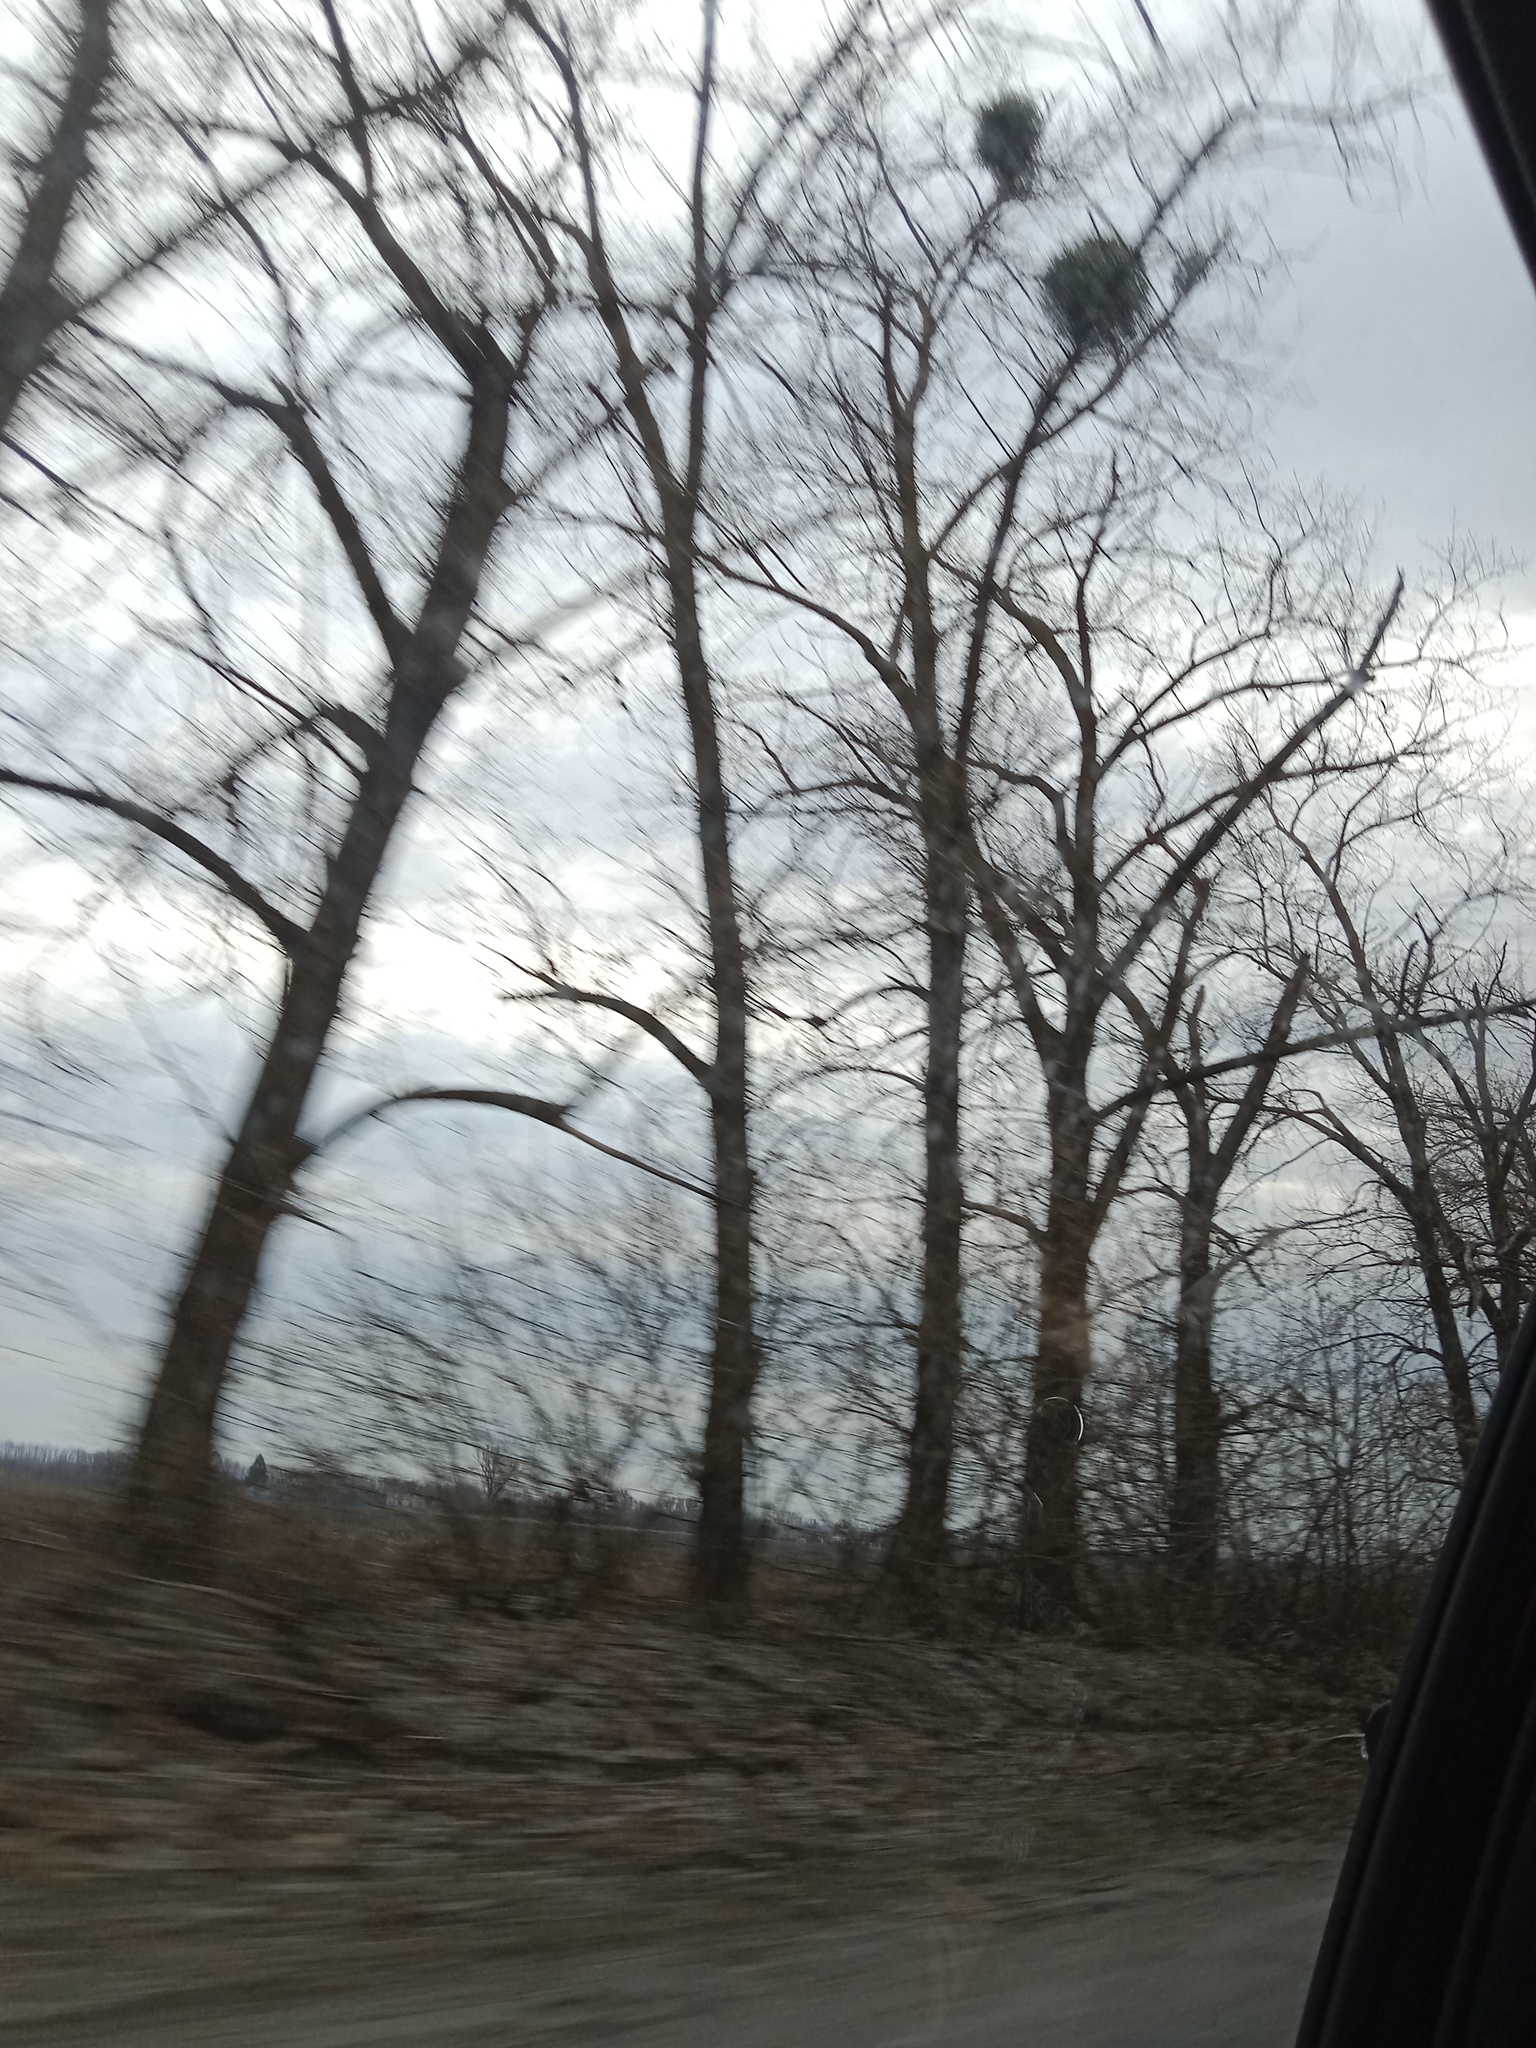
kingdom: Plantae
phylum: Tracheophyta
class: Magnoliopsida
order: Santalales
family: Viscaceae
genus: Viscum
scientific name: Viscum album
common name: Mistletoe
